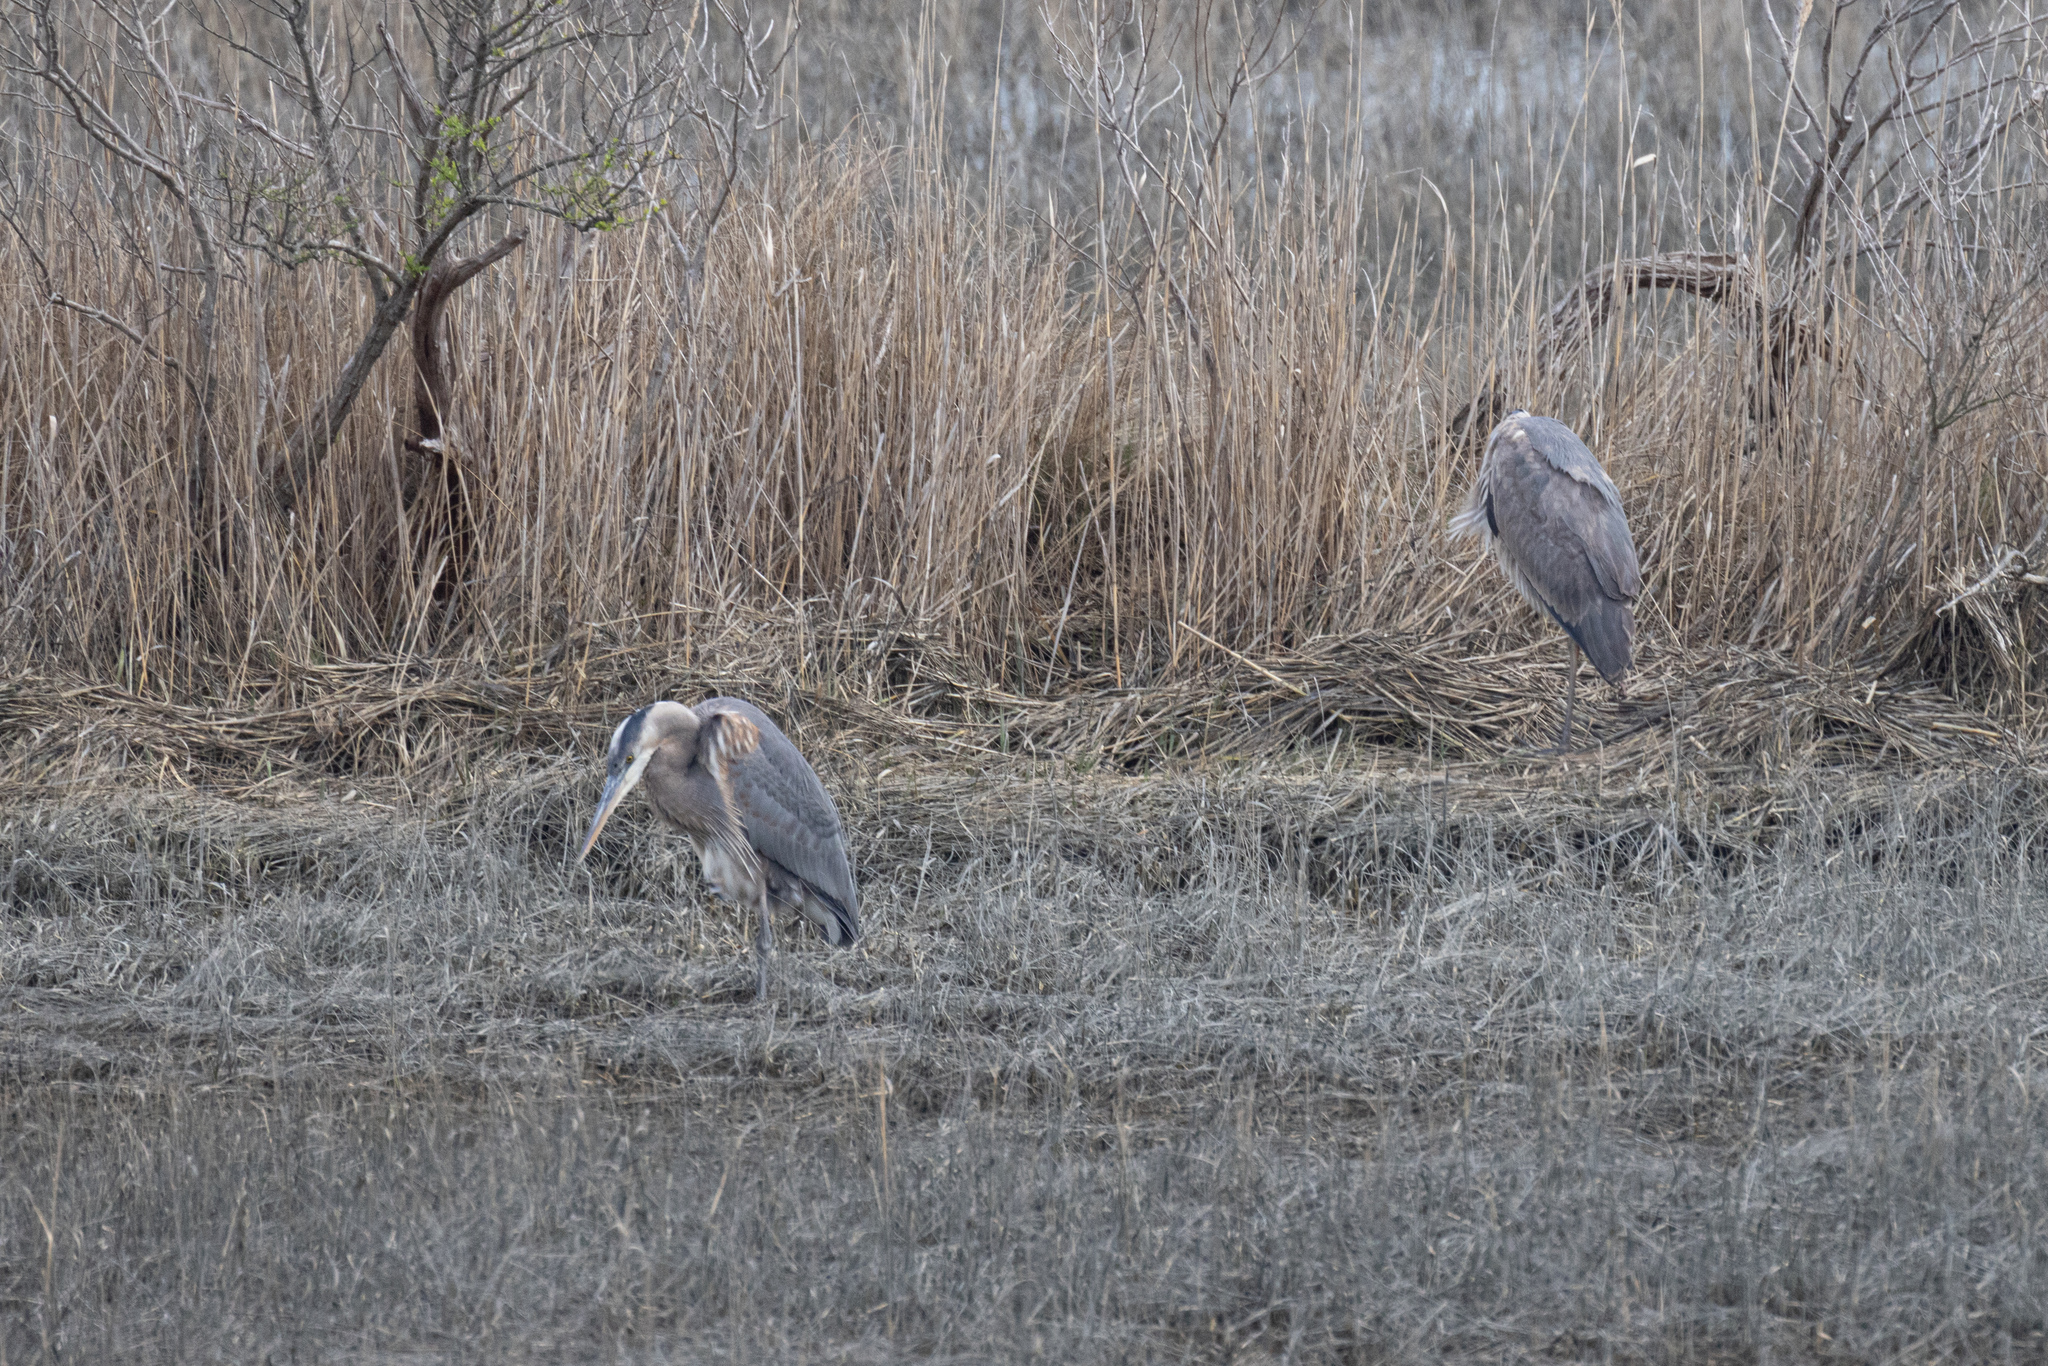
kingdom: Animalia
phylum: Chordata
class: Aves
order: Pelecaniformes
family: Ardeidae
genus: Ardea
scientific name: Ardea herodias
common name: Great blue heron
